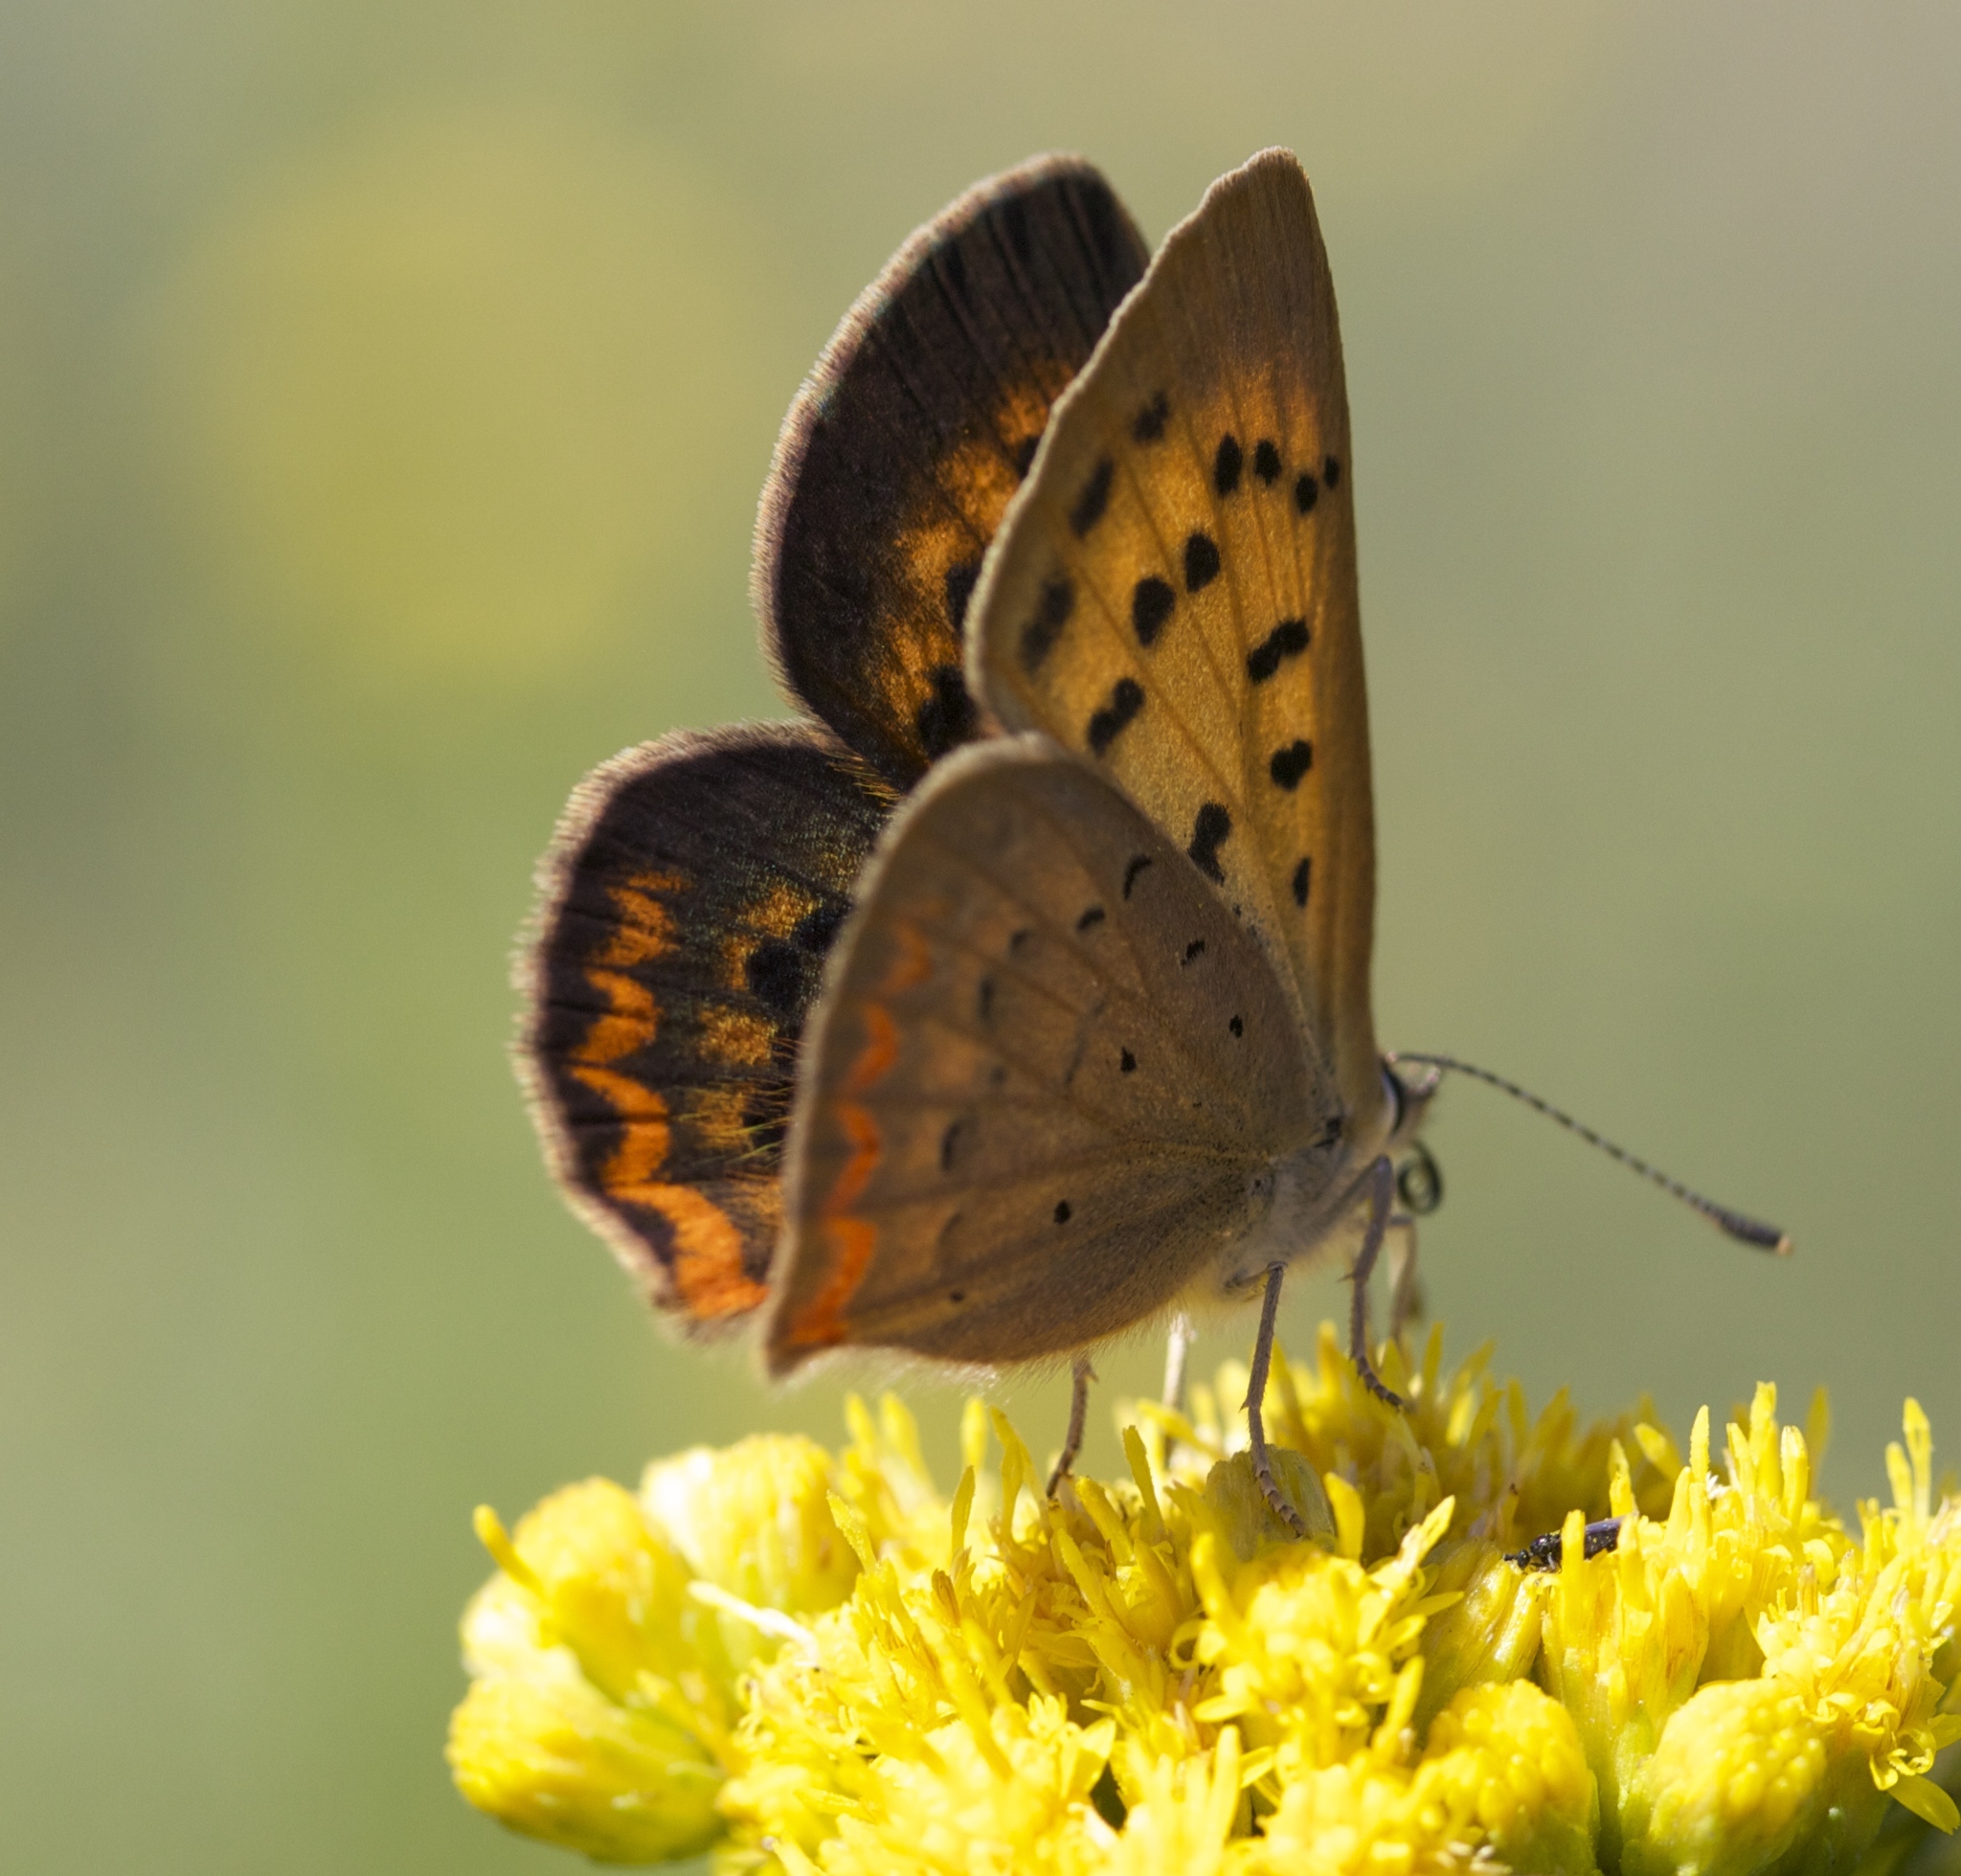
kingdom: Animalia
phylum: Arthropoda
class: Insecta
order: Lepidoptera
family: Lycaenidae
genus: Tharsalea
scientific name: Tharsalea helloides
